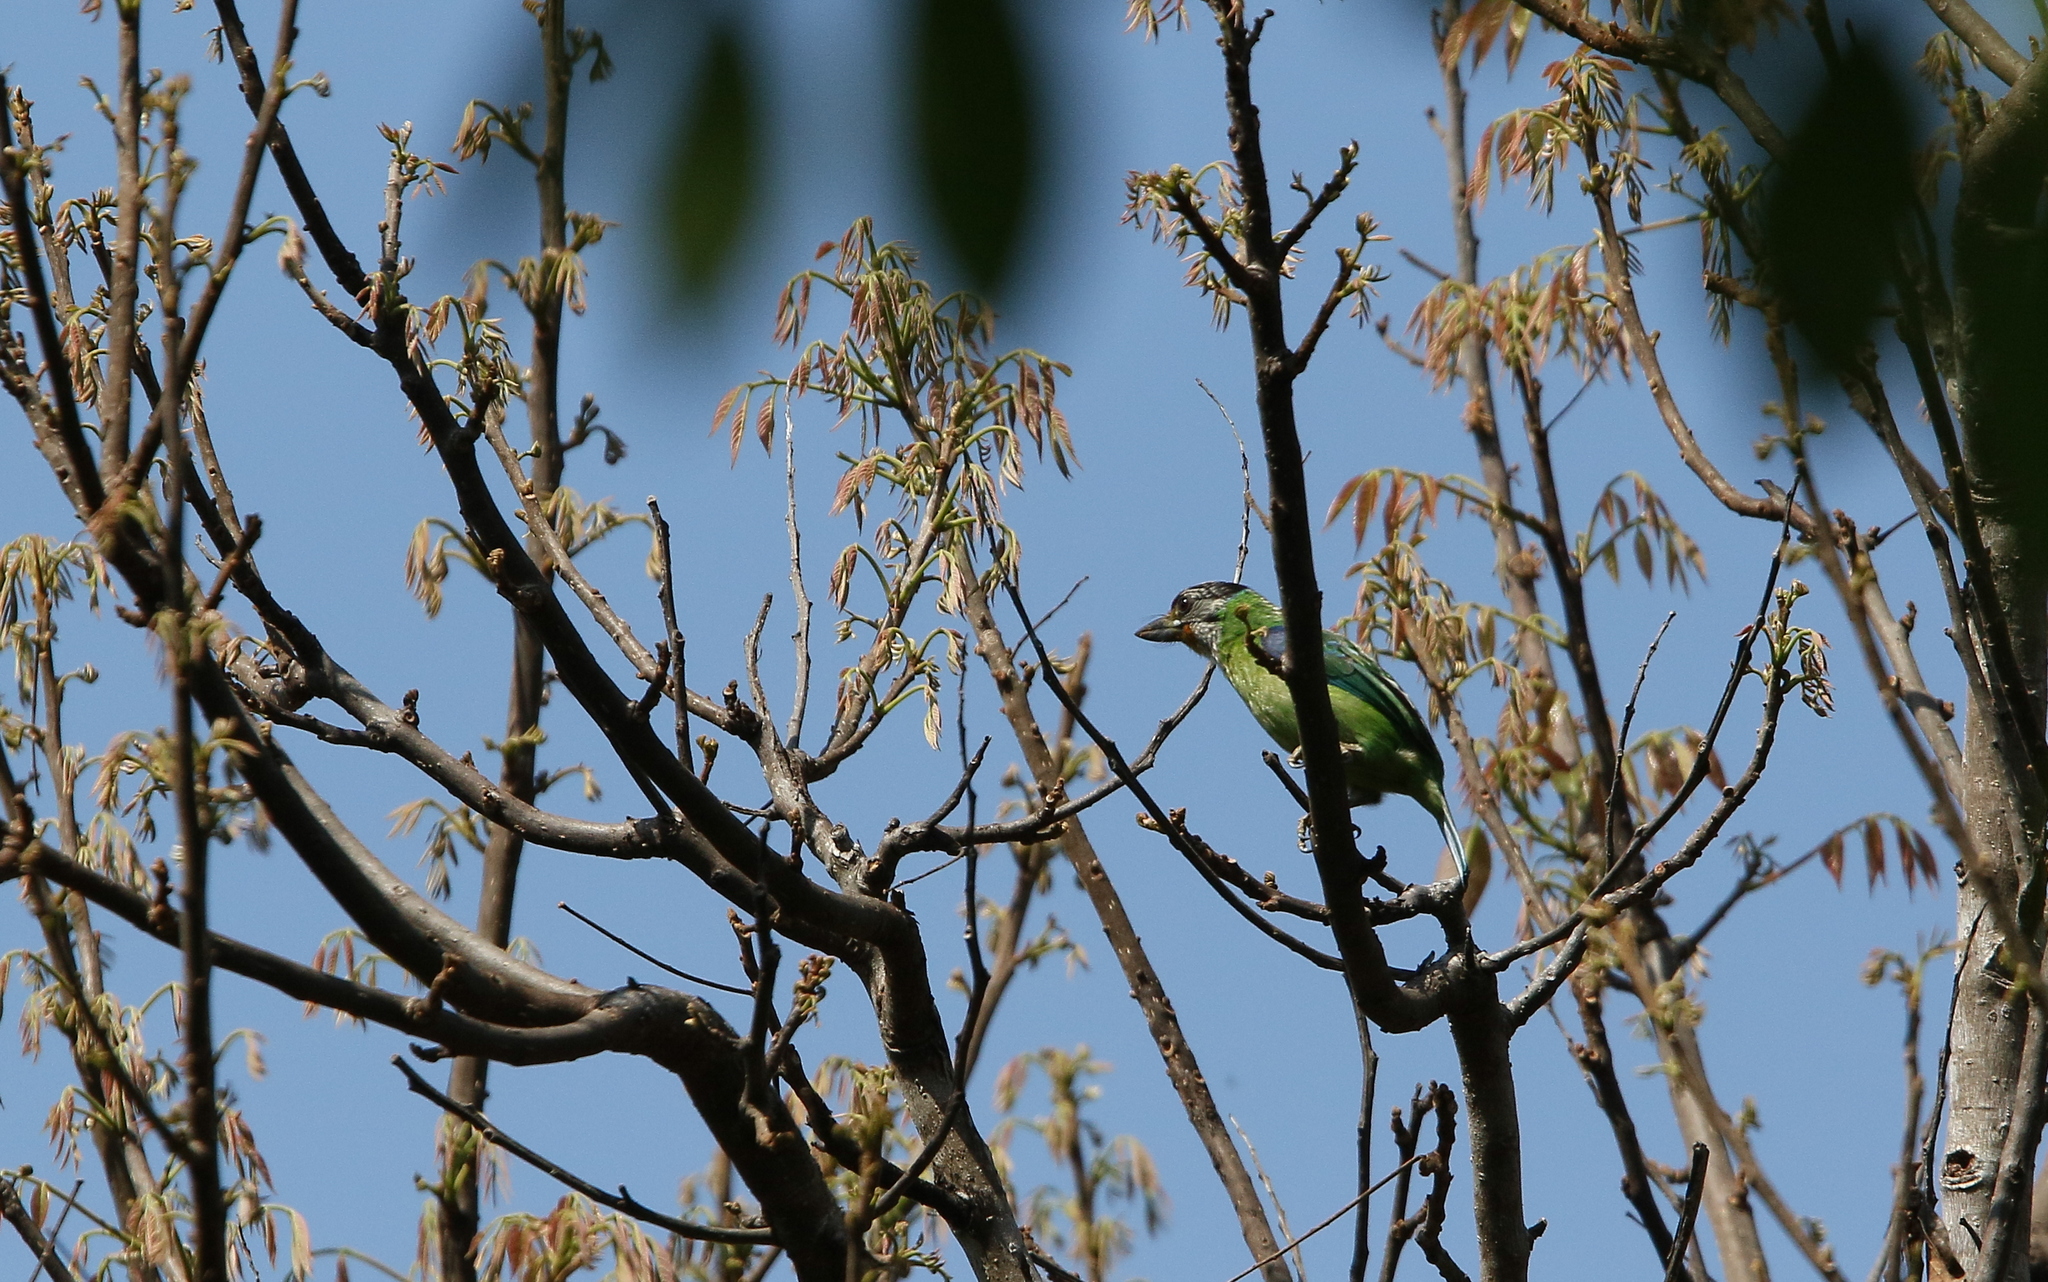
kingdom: Animalia
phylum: Chordata
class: Aves
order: Piciformes
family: Megalaimidae
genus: Psilopogon
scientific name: Psilopogon franklinii
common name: Golden-throated barbet
